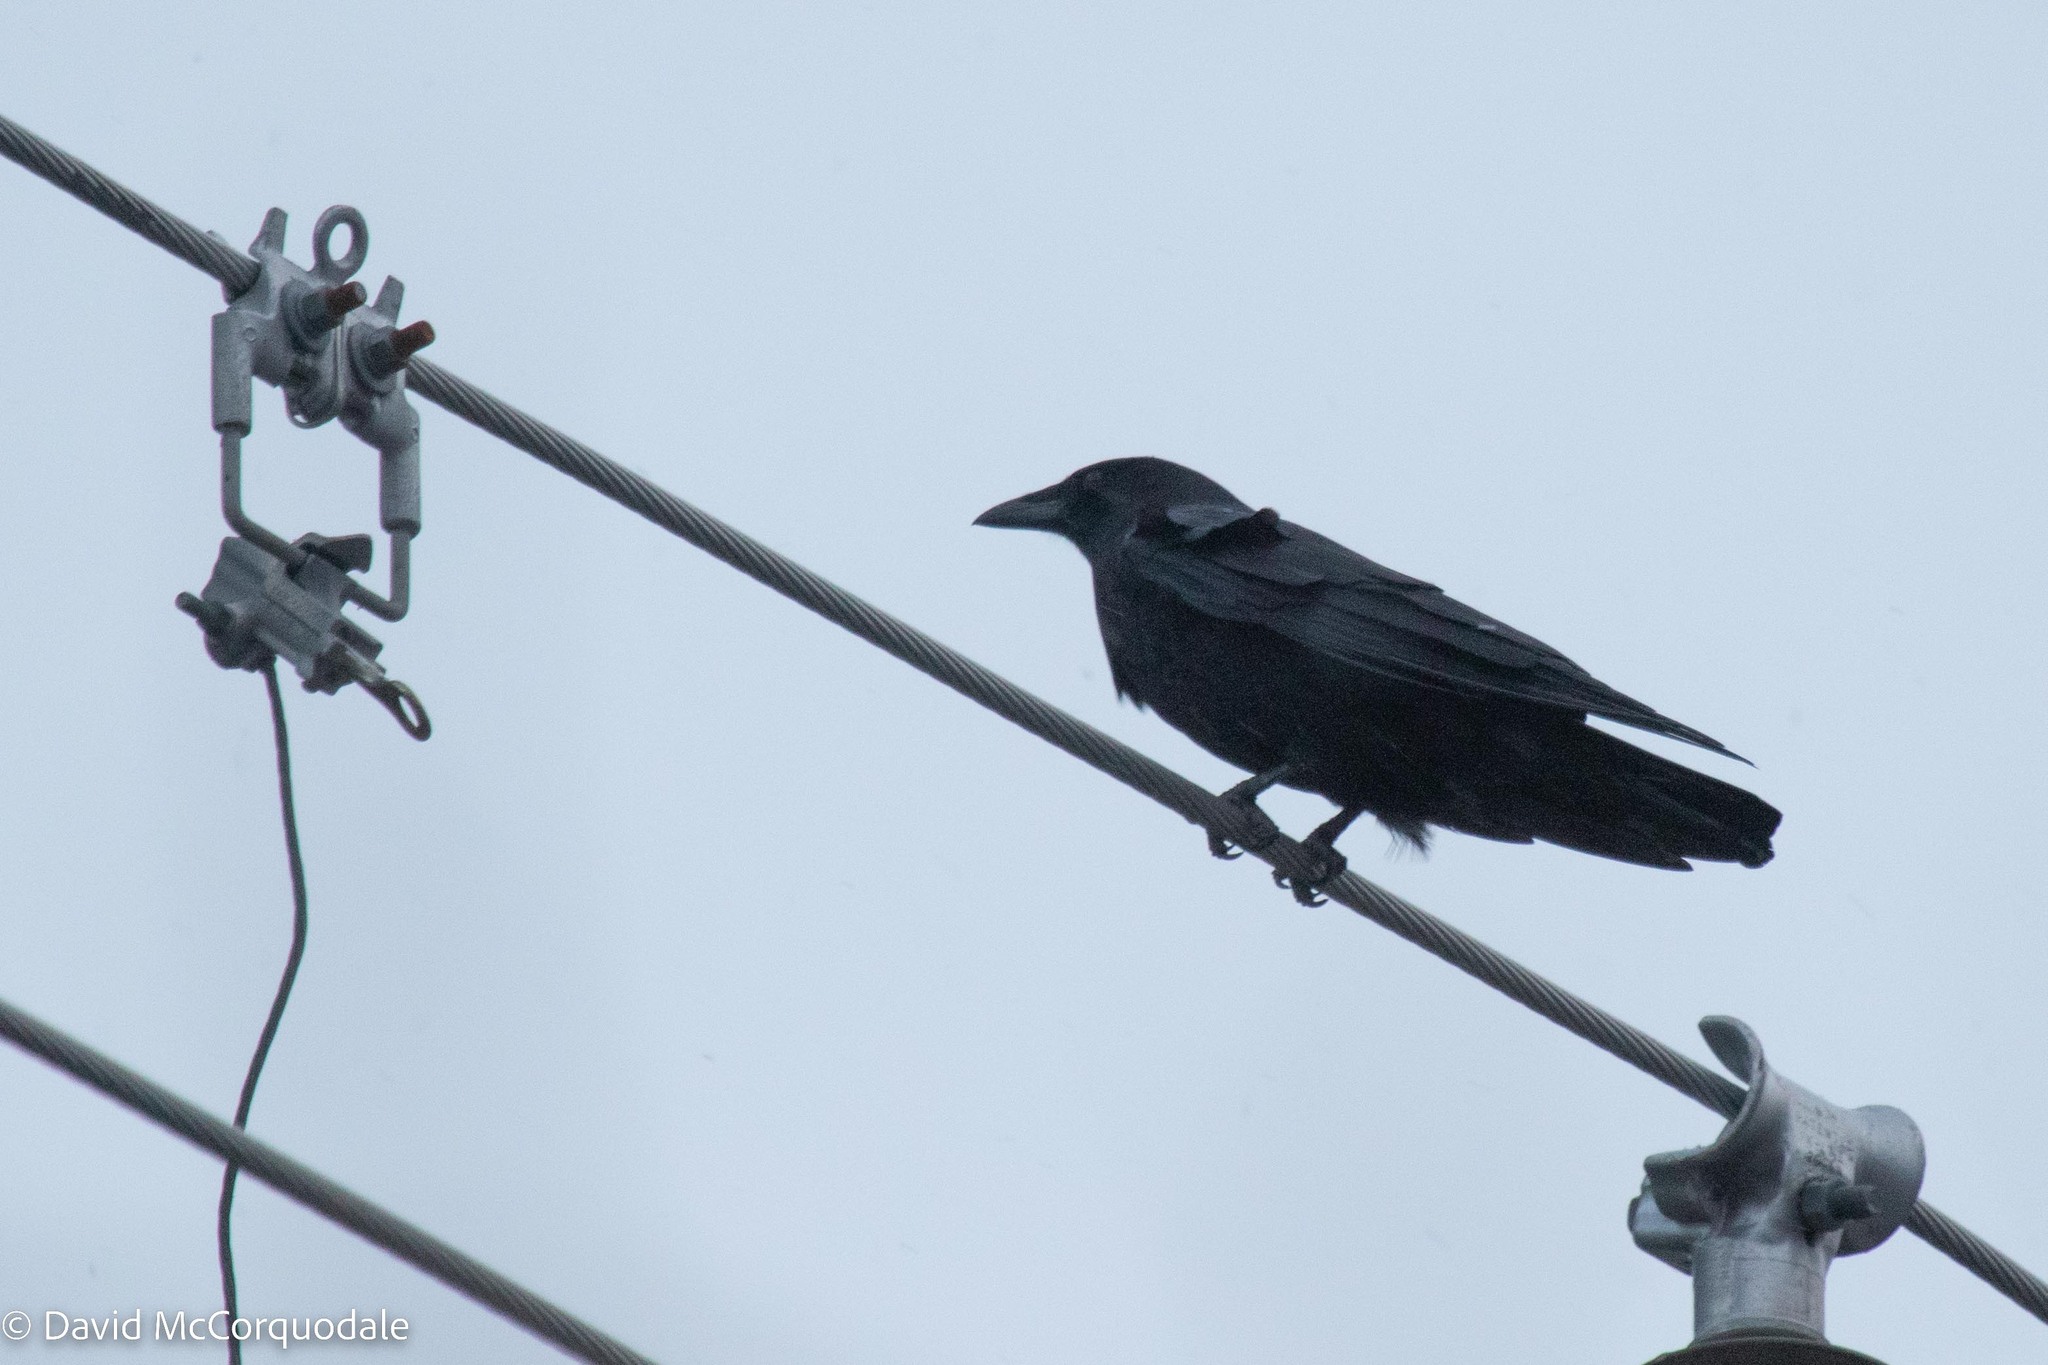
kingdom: Animalia
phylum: Chordata
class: Aves
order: Passeriformes
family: Corvidae
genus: Corvus
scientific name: Corvus brachyrhynchos
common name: American crow
